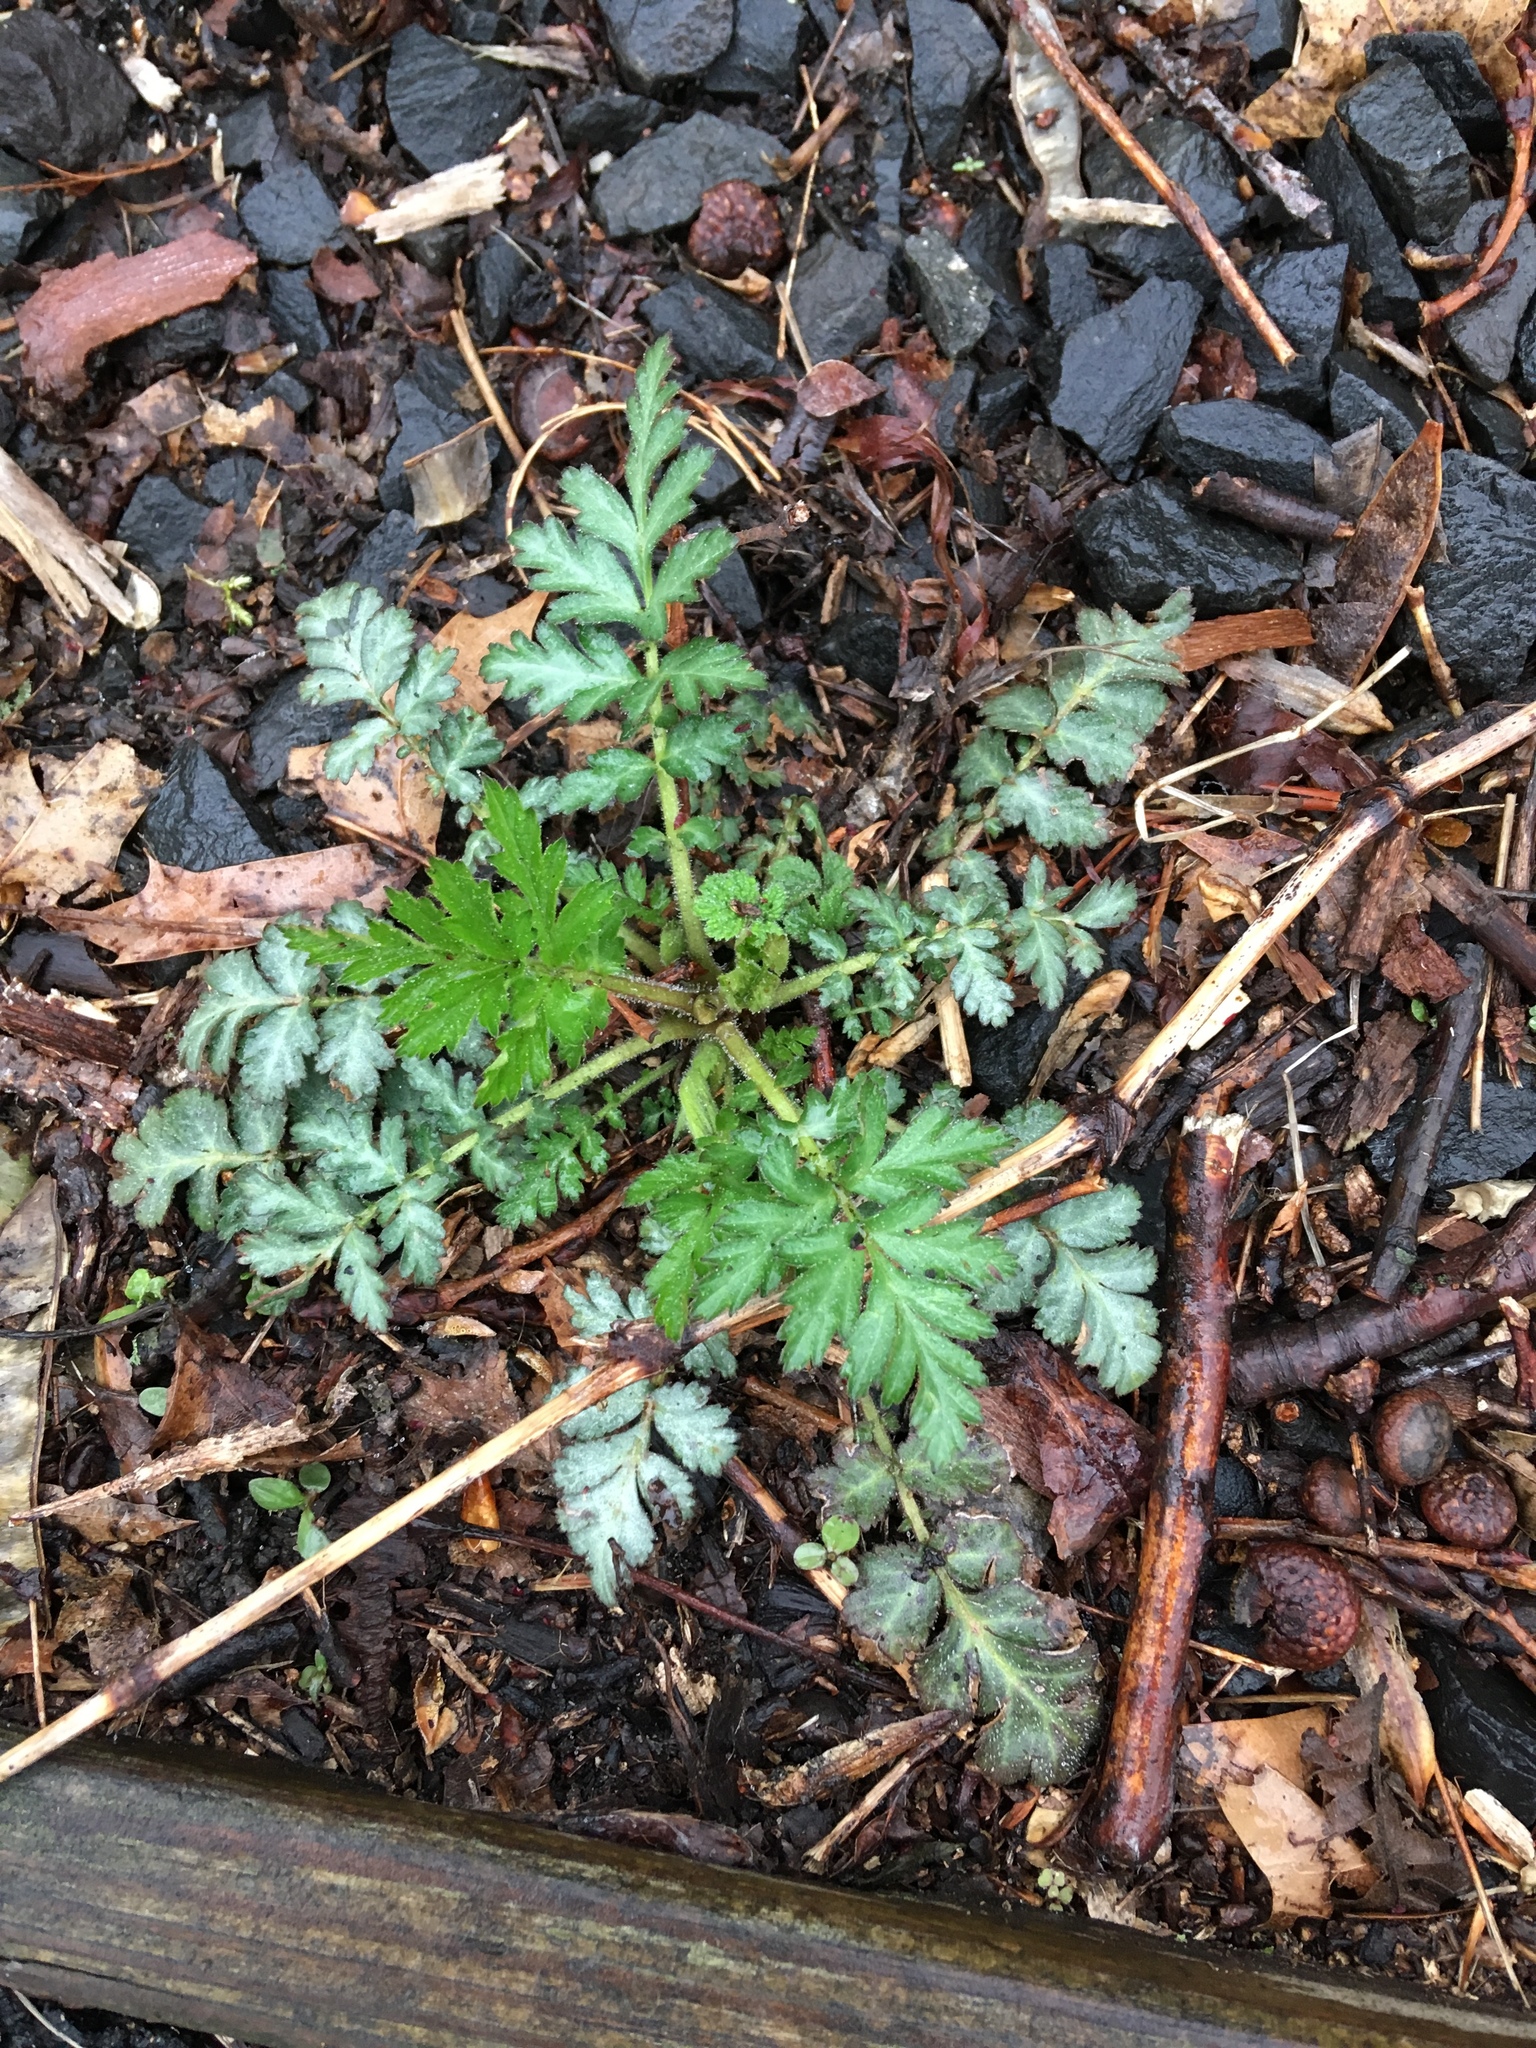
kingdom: Plantae
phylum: Tracheophyta
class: Magnoliopsida
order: Rosales
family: Rosaceae
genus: Geum
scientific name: Geum canadense
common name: White avens
